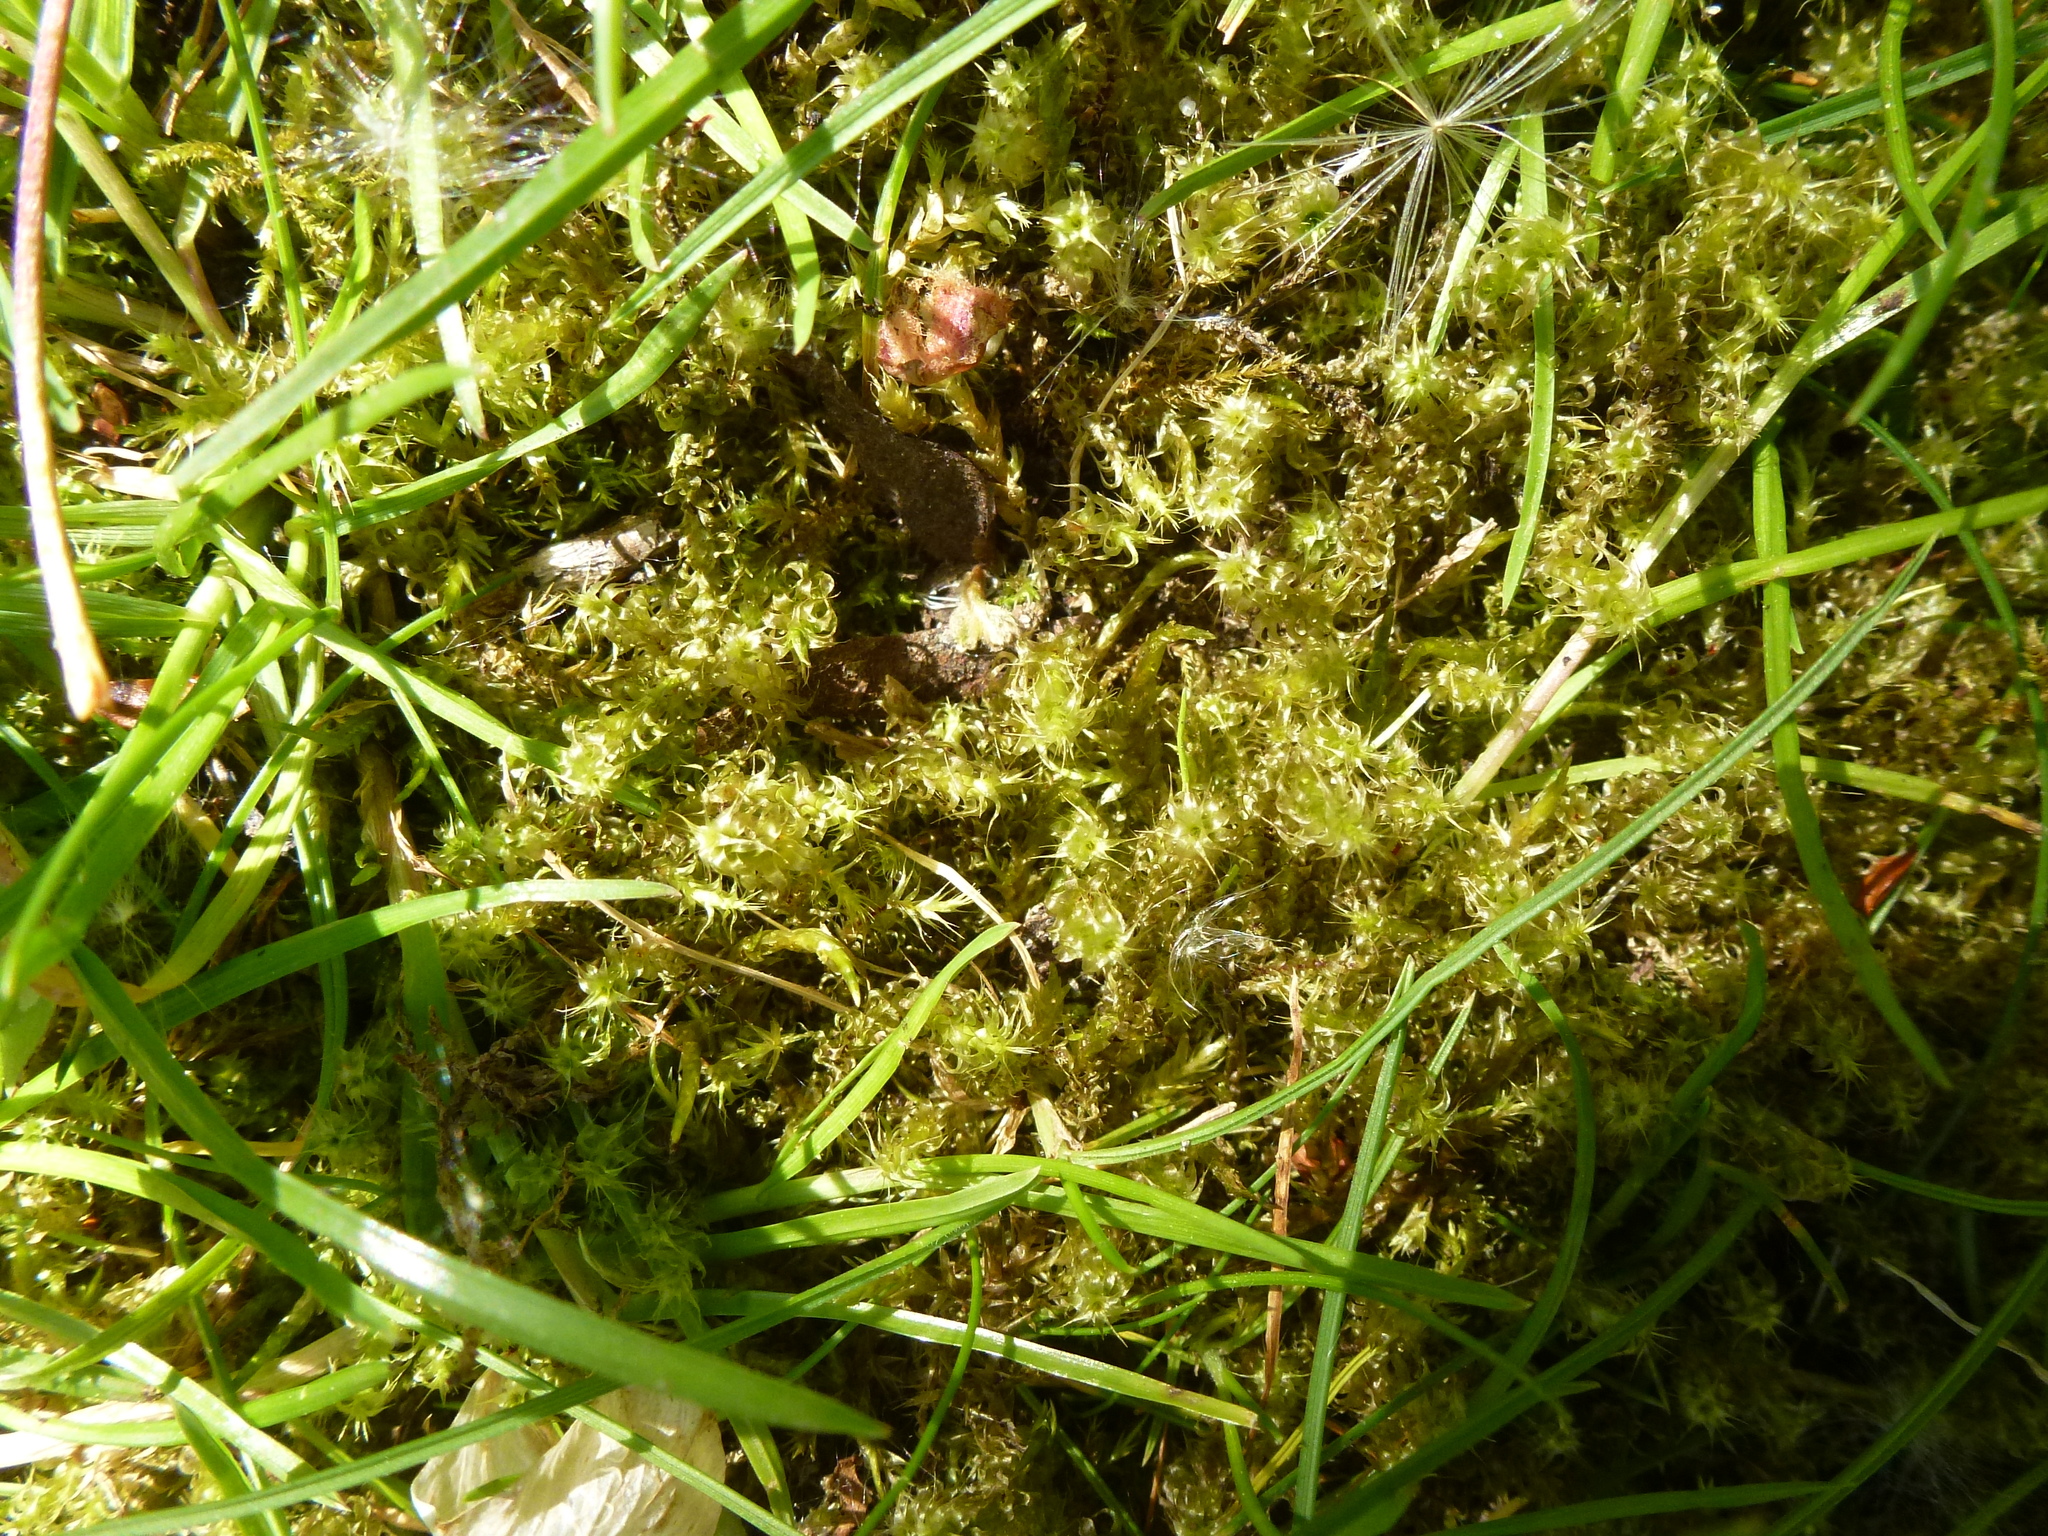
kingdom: Plantae
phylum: Bryophyta
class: Bryopsida
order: Hypnales
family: Hylocomiaceae
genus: Rhytidiadelphus
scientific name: Rhytidiadelphus squarrosus
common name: Springy turf-moss
